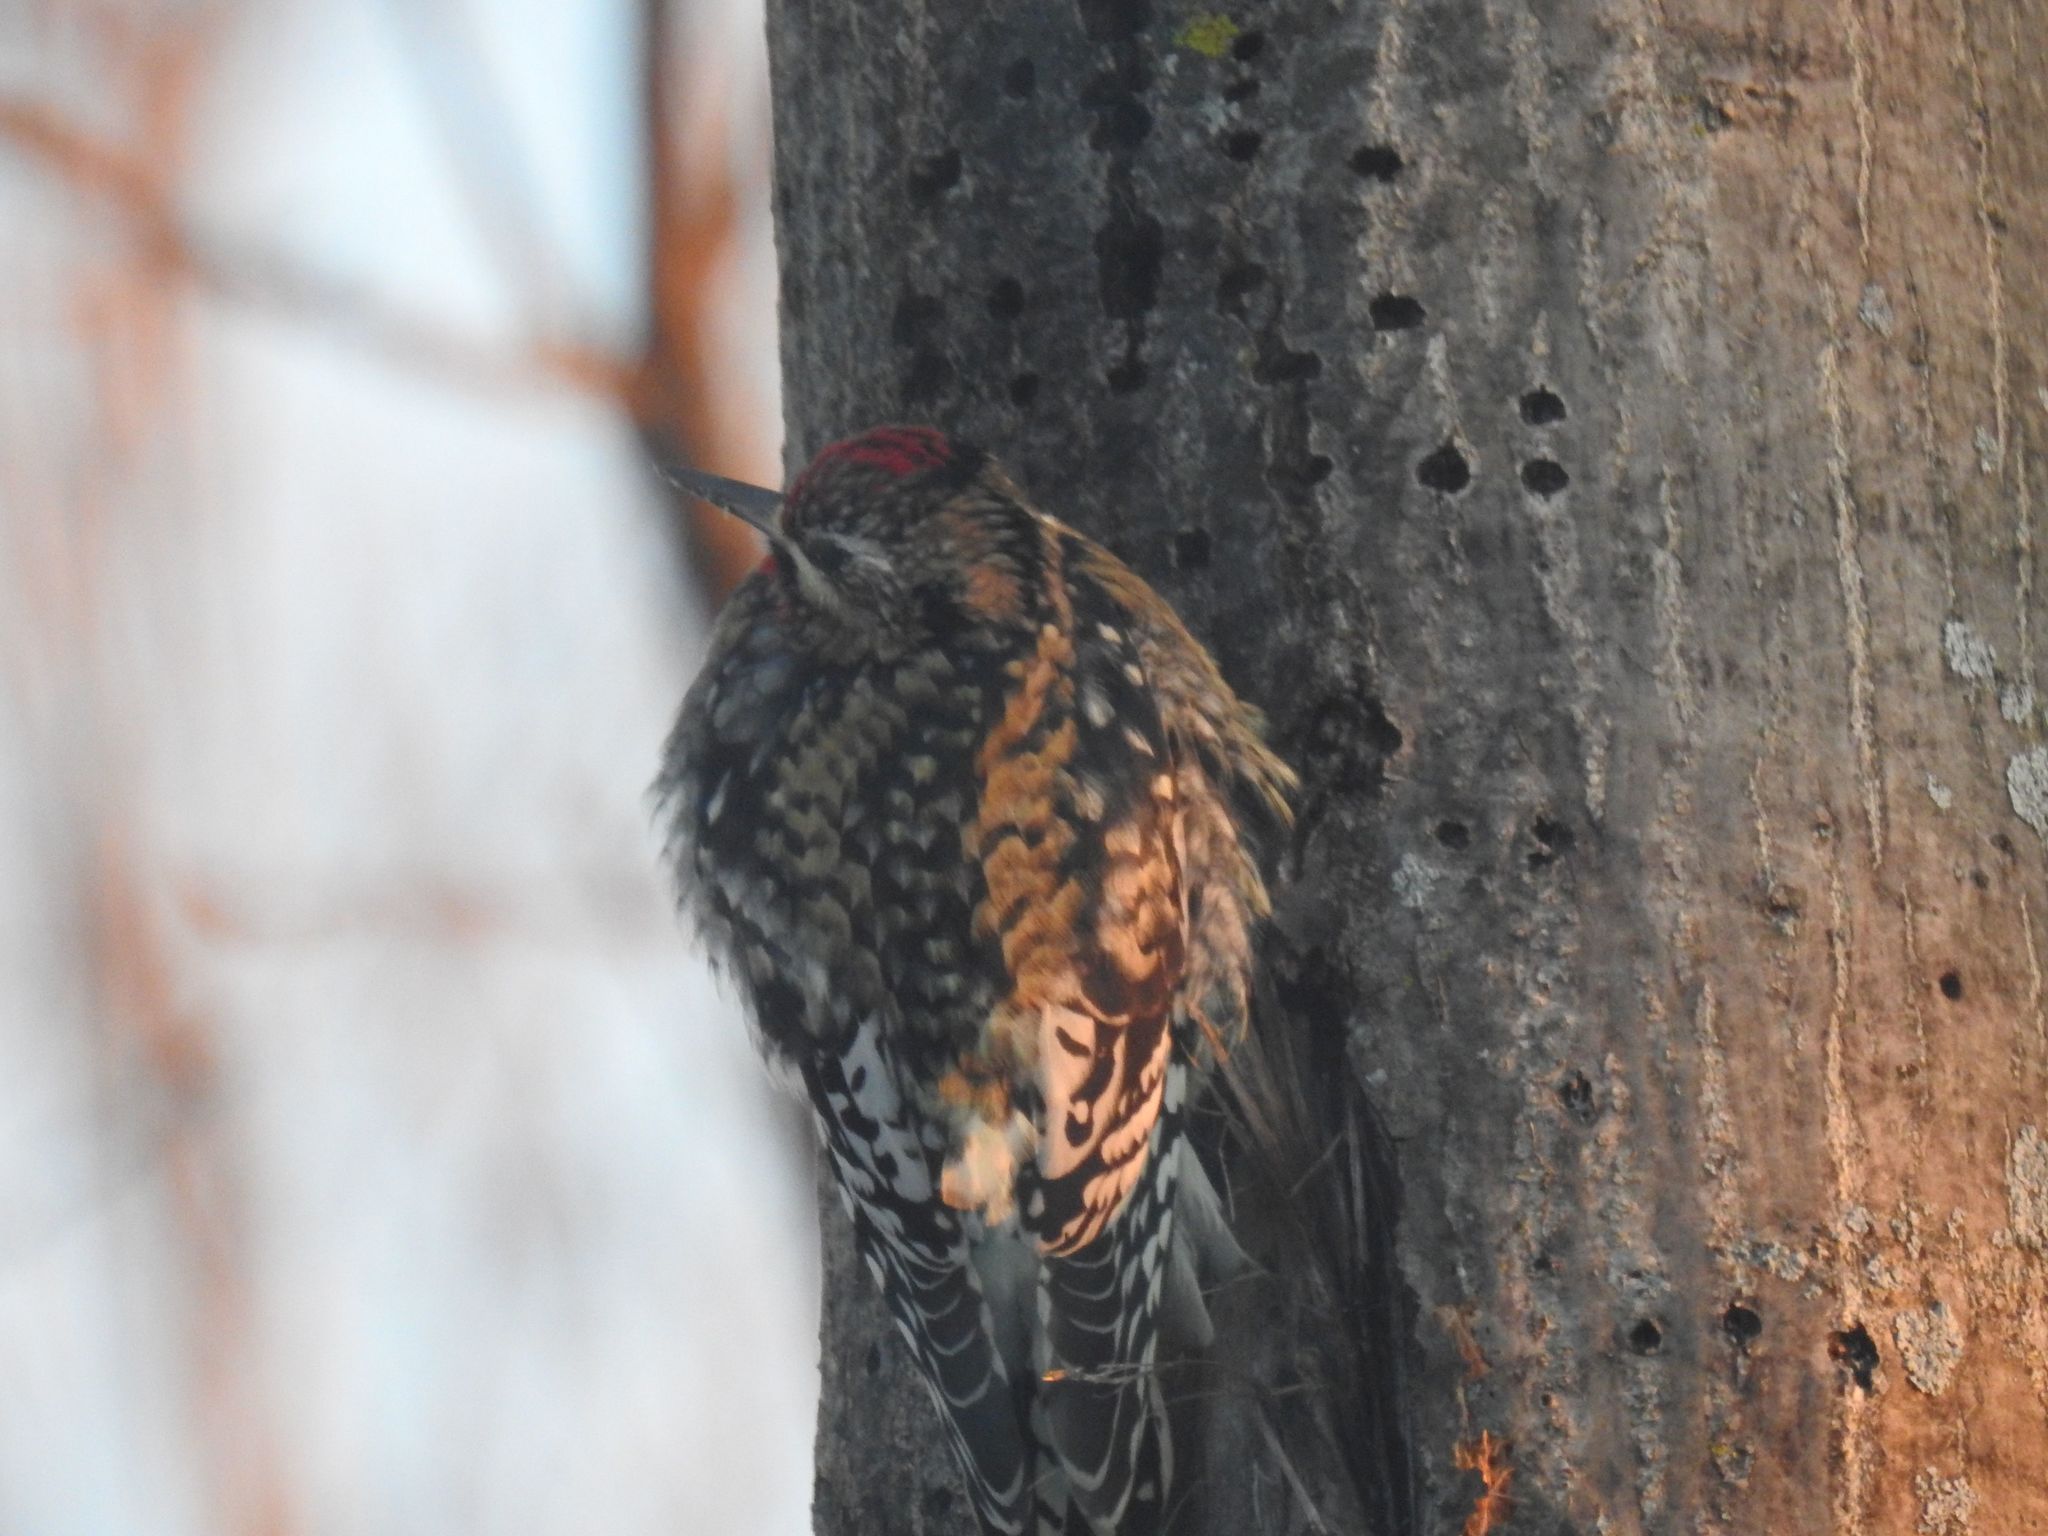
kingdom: Animalia
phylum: Chordata
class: Aves
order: Piciformes
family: Picidae
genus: Sphyrapicus
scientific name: Sphyrapicus varius
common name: Yellow-bellied sapsucker
